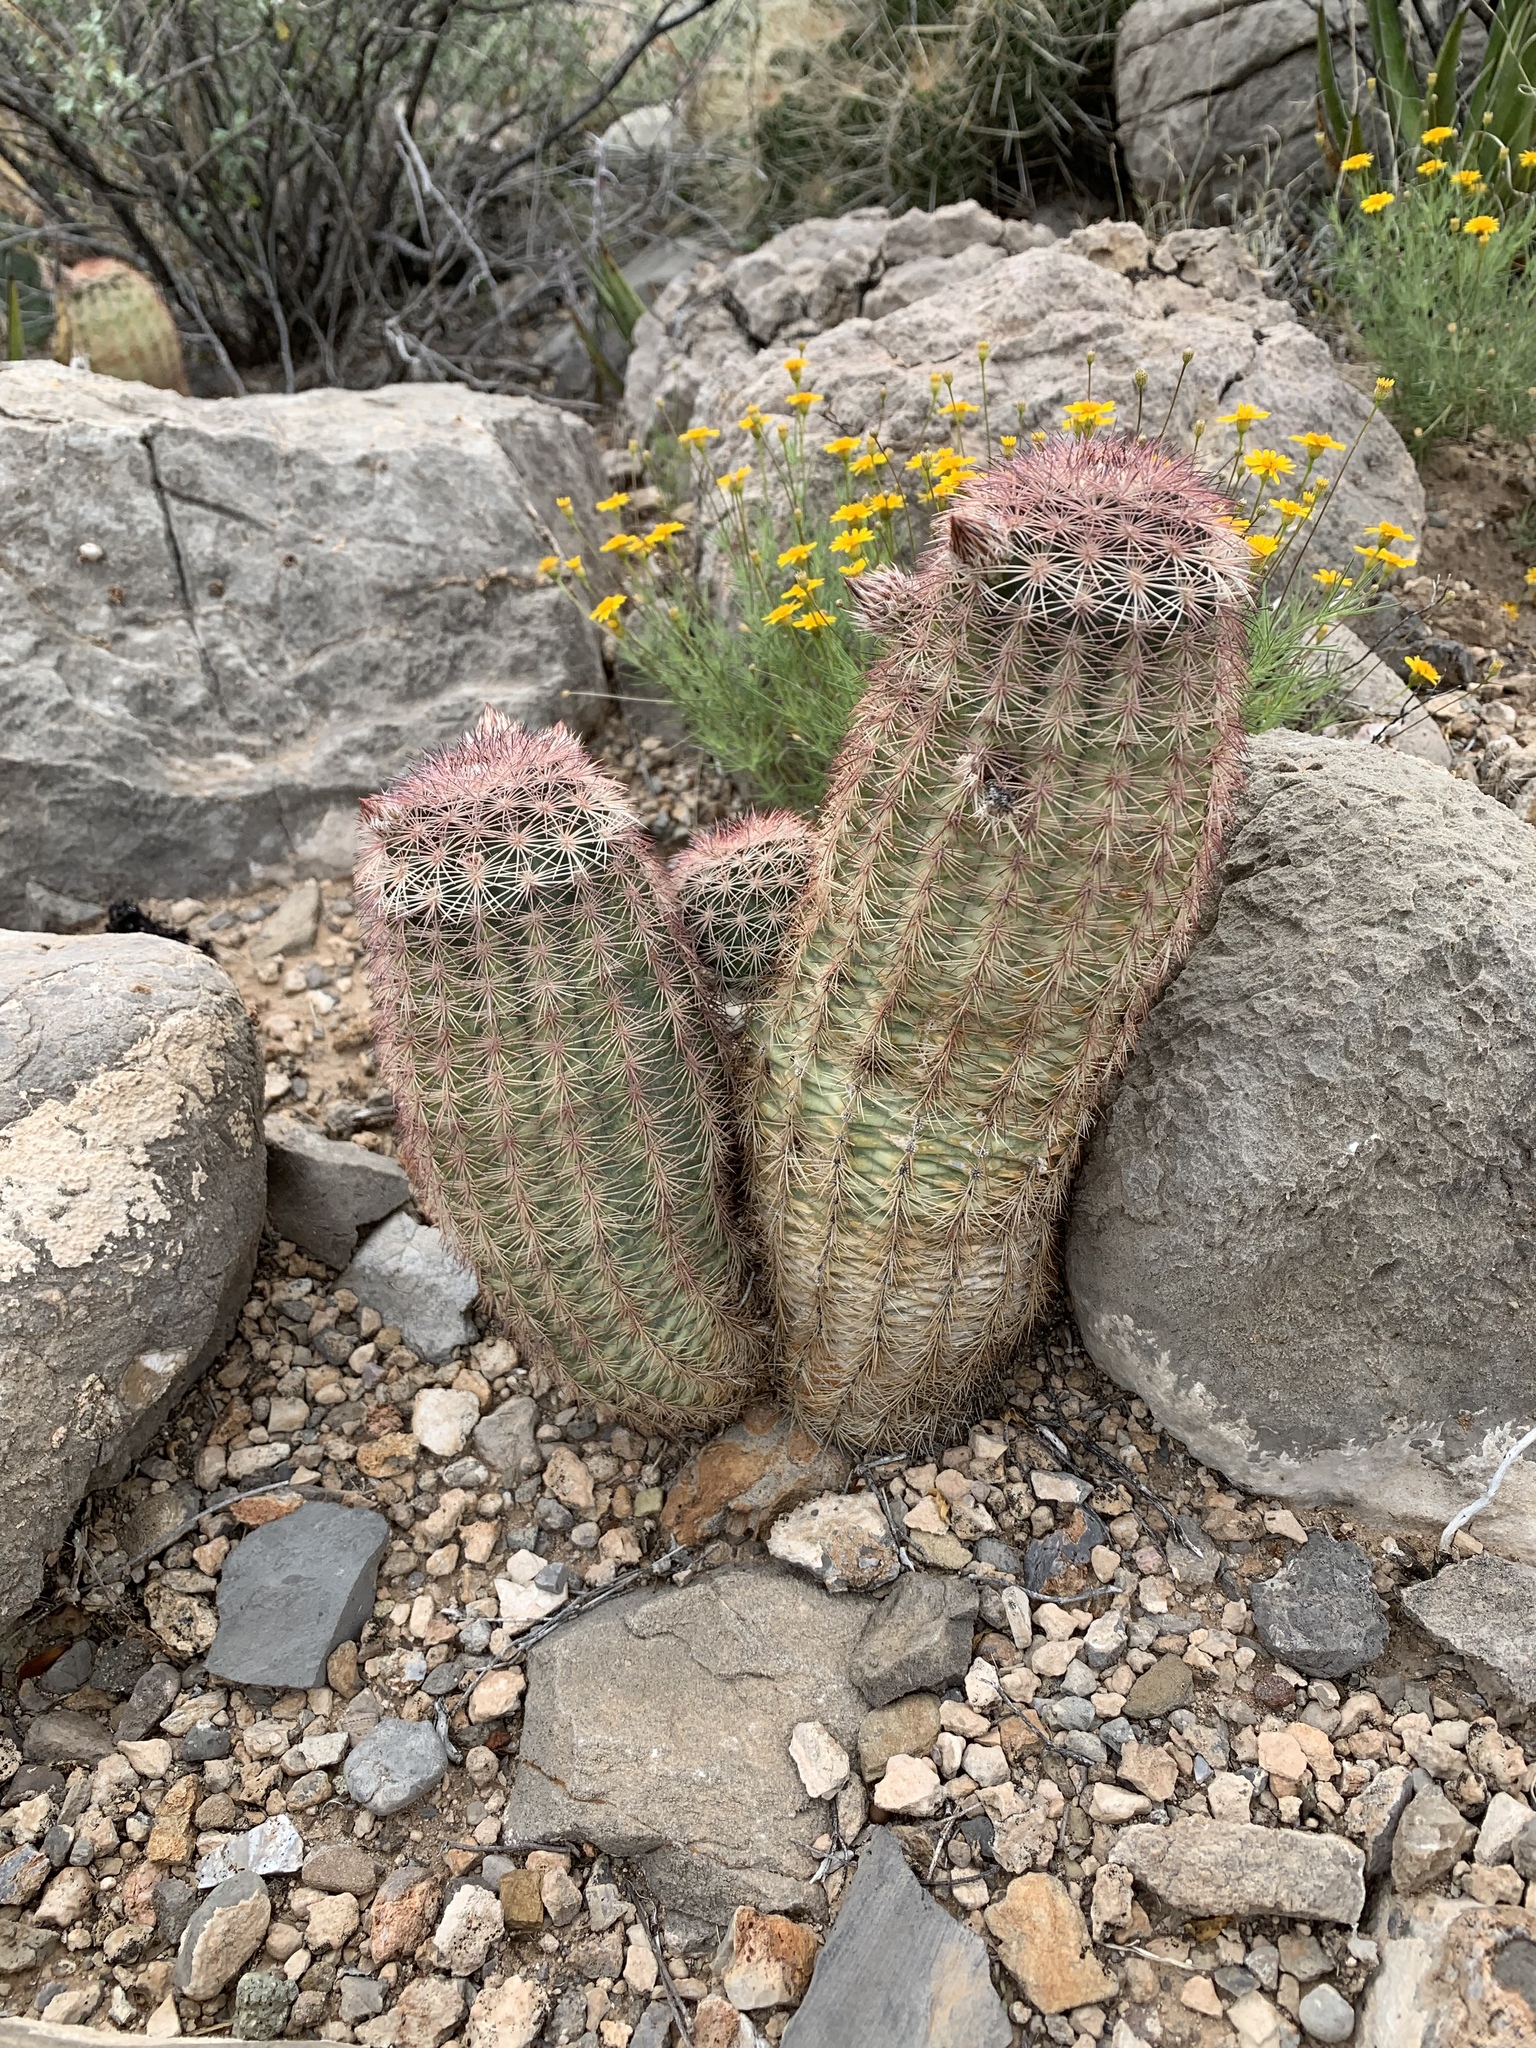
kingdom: Plantae
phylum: Tracheophyta
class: Magnoliopsida
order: Caryophyllales
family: Cactaceae
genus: Echinocereus
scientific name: Echinocereus dasyacanthus
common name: Spiny hedgehog cactus
